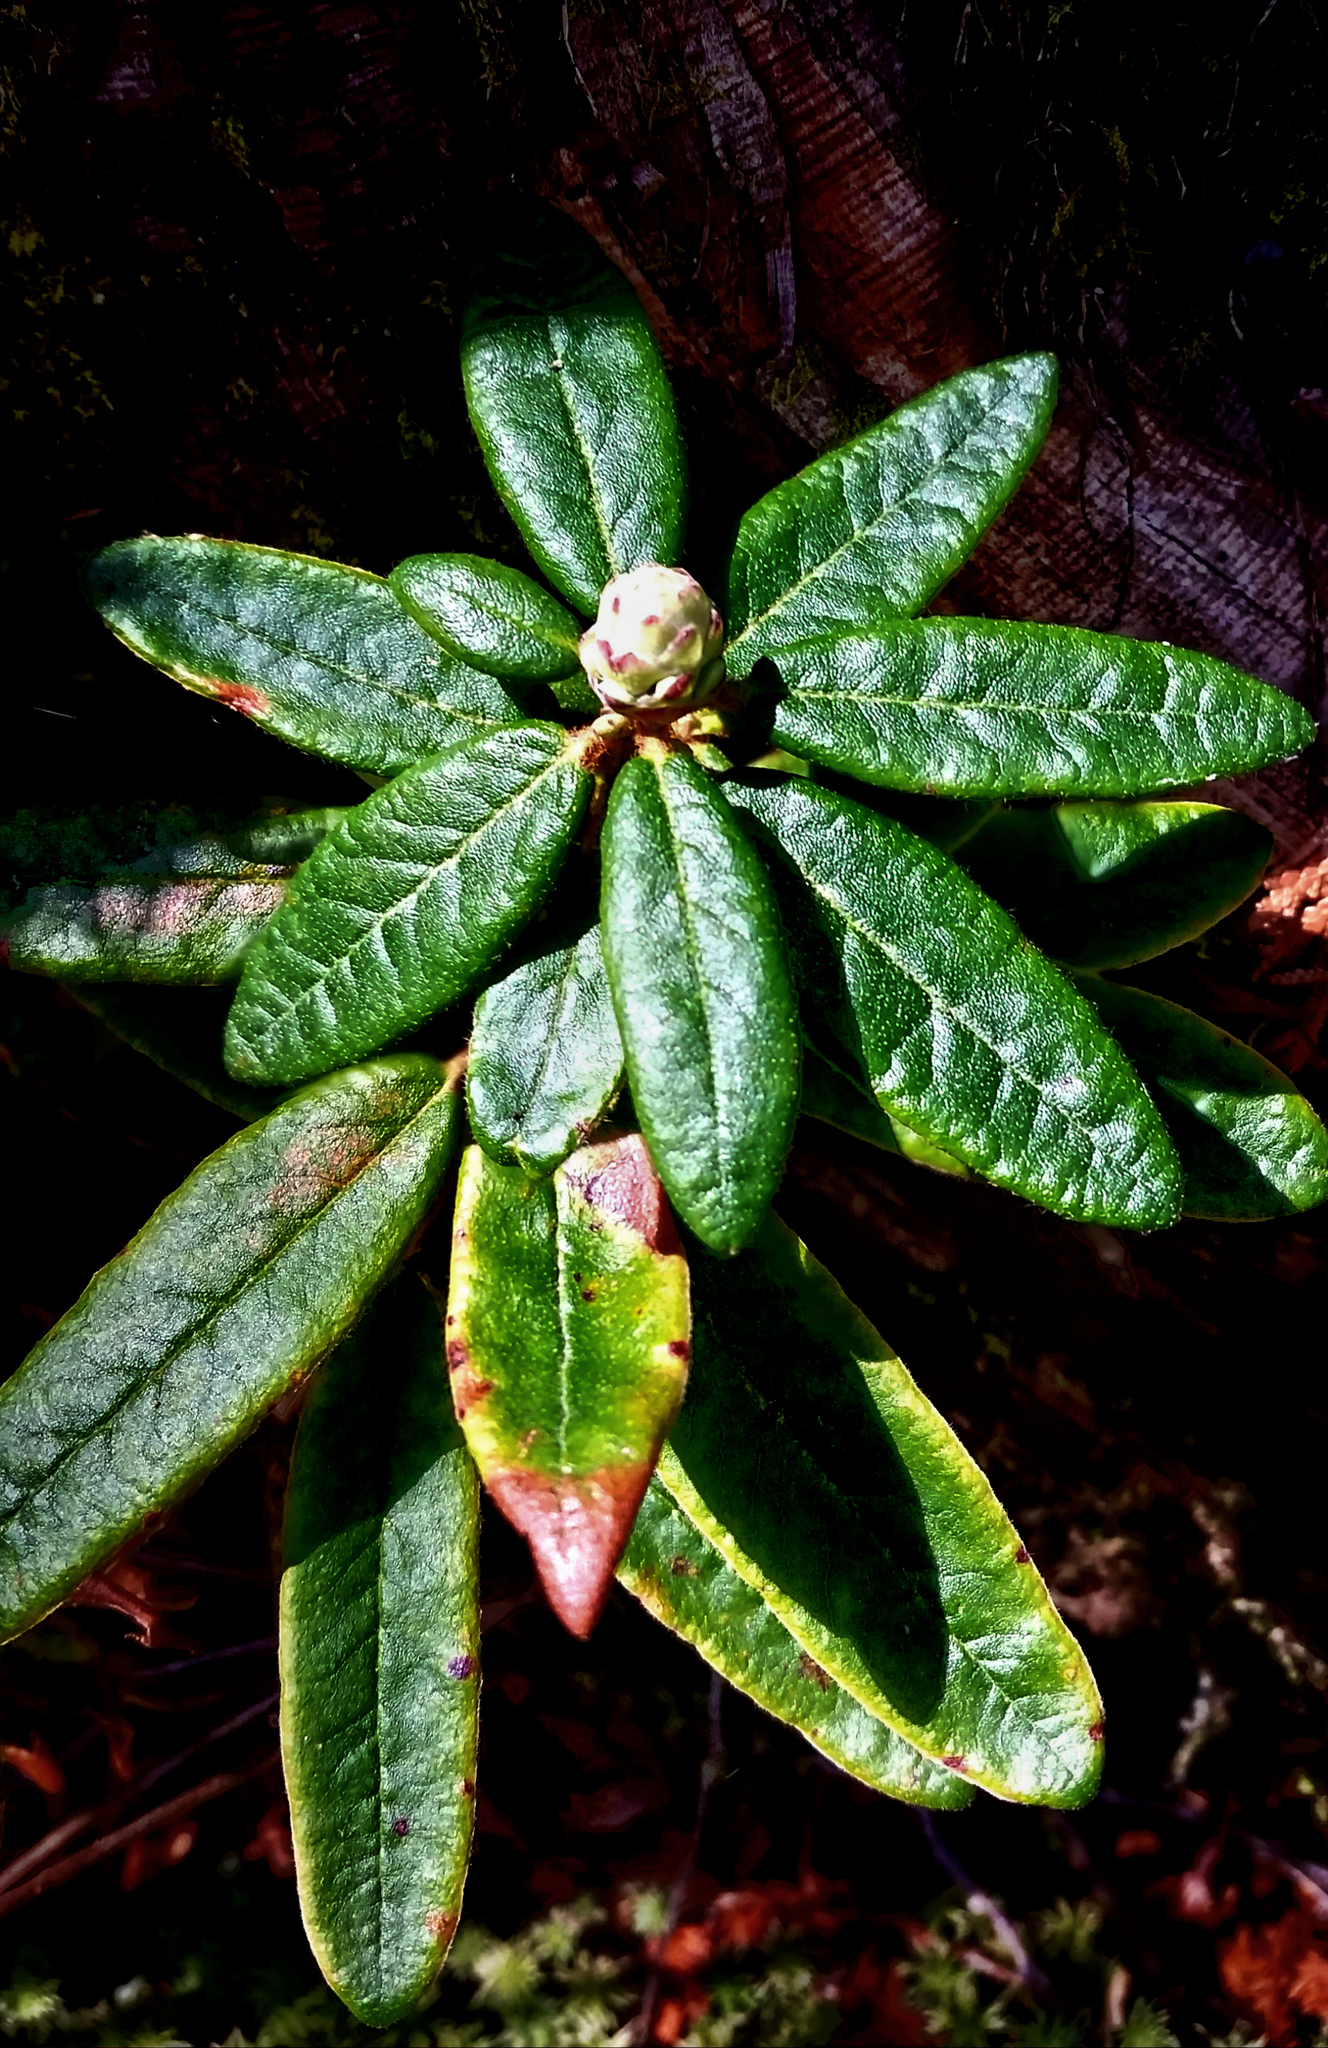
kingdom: Plantae
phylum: Tracheophyta
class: Magnoliopsida
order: Ericales
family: Ericaceae
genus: Rhododendron
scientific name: Rhododendron groenlandicum
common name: Bog labrador tea
